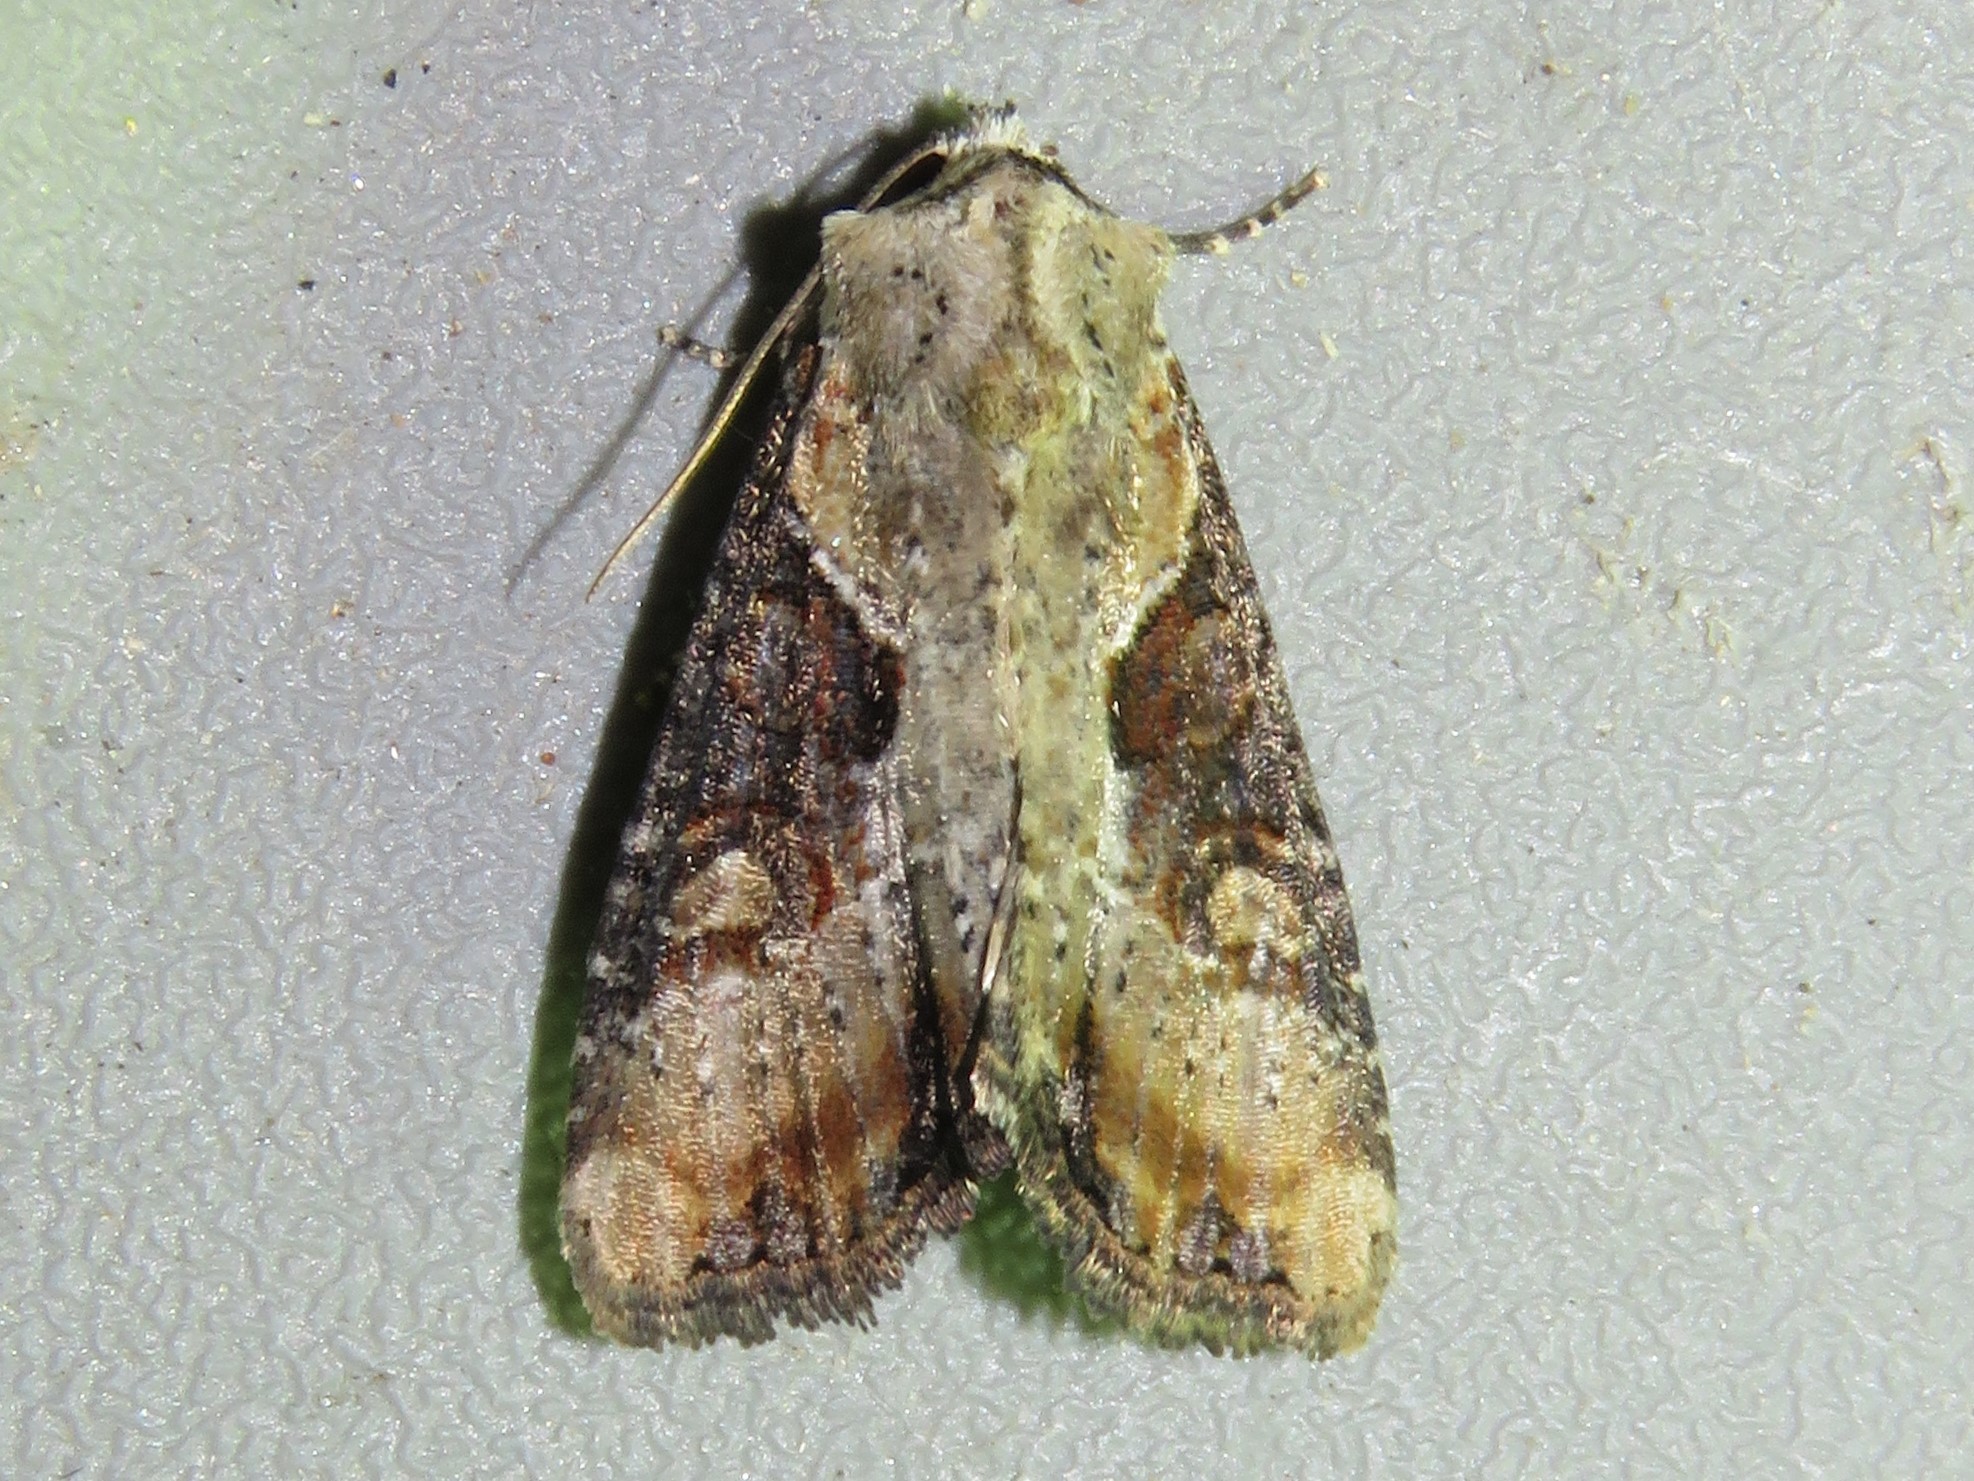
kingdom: Animalia
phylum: Arthropoda
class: Insecta
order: Lepidoptera
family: Noctuidae
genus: Lateroligia
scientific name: Lateroligia ophiogramma
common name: Double lobed
